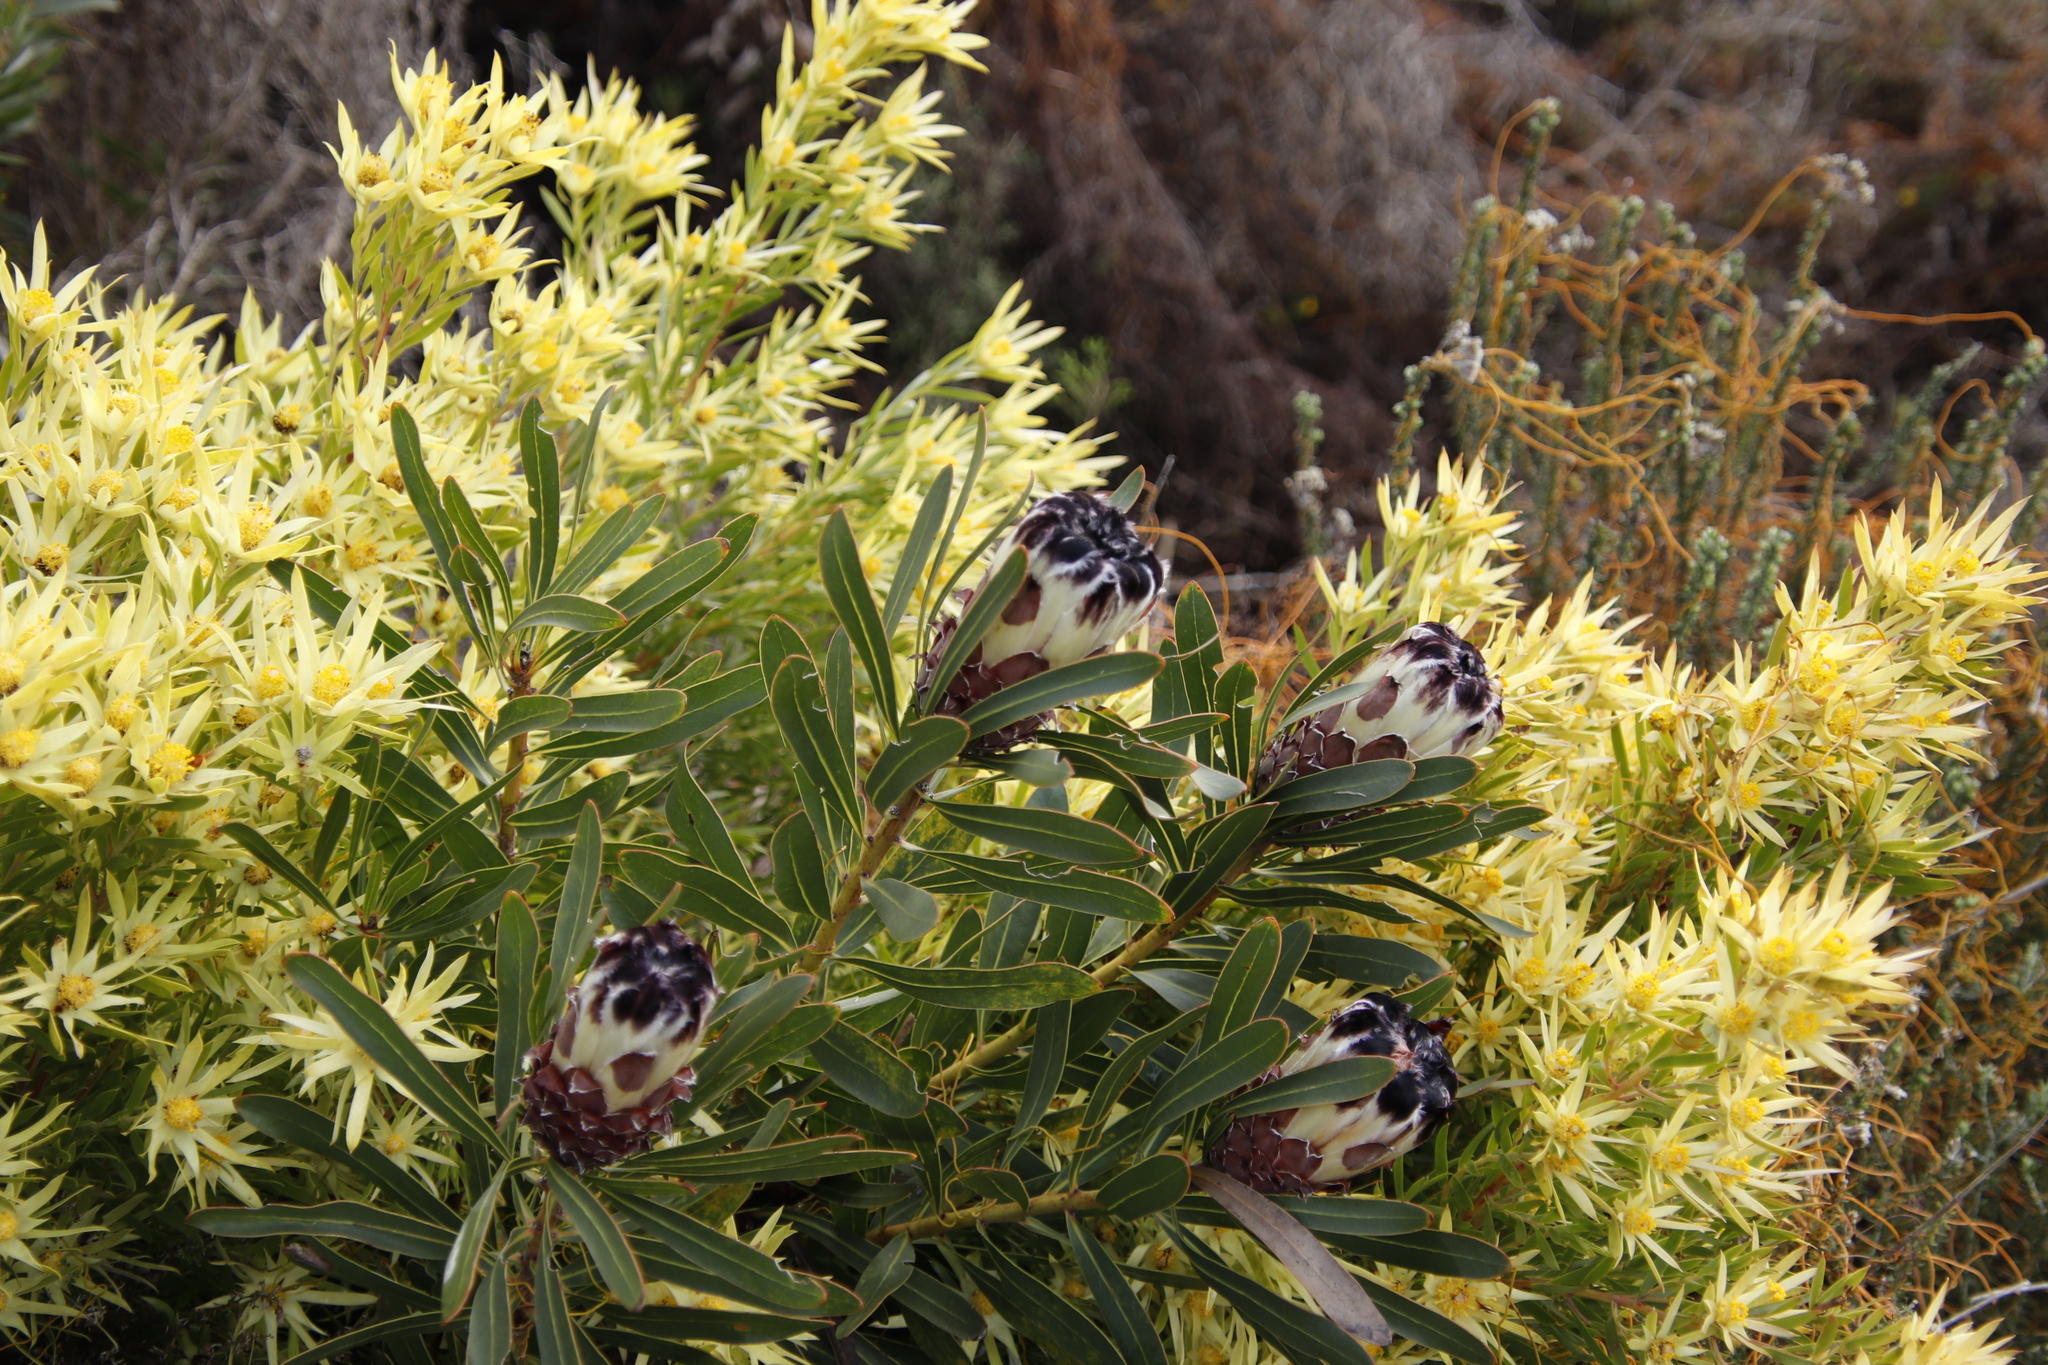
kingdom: Plantae
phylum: Tracheophyta
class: Magnoliopsida
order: Proteales
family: Proteaceae
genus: Protea
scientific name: Protea lepidocarpodendron
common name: Black-bearded protea
